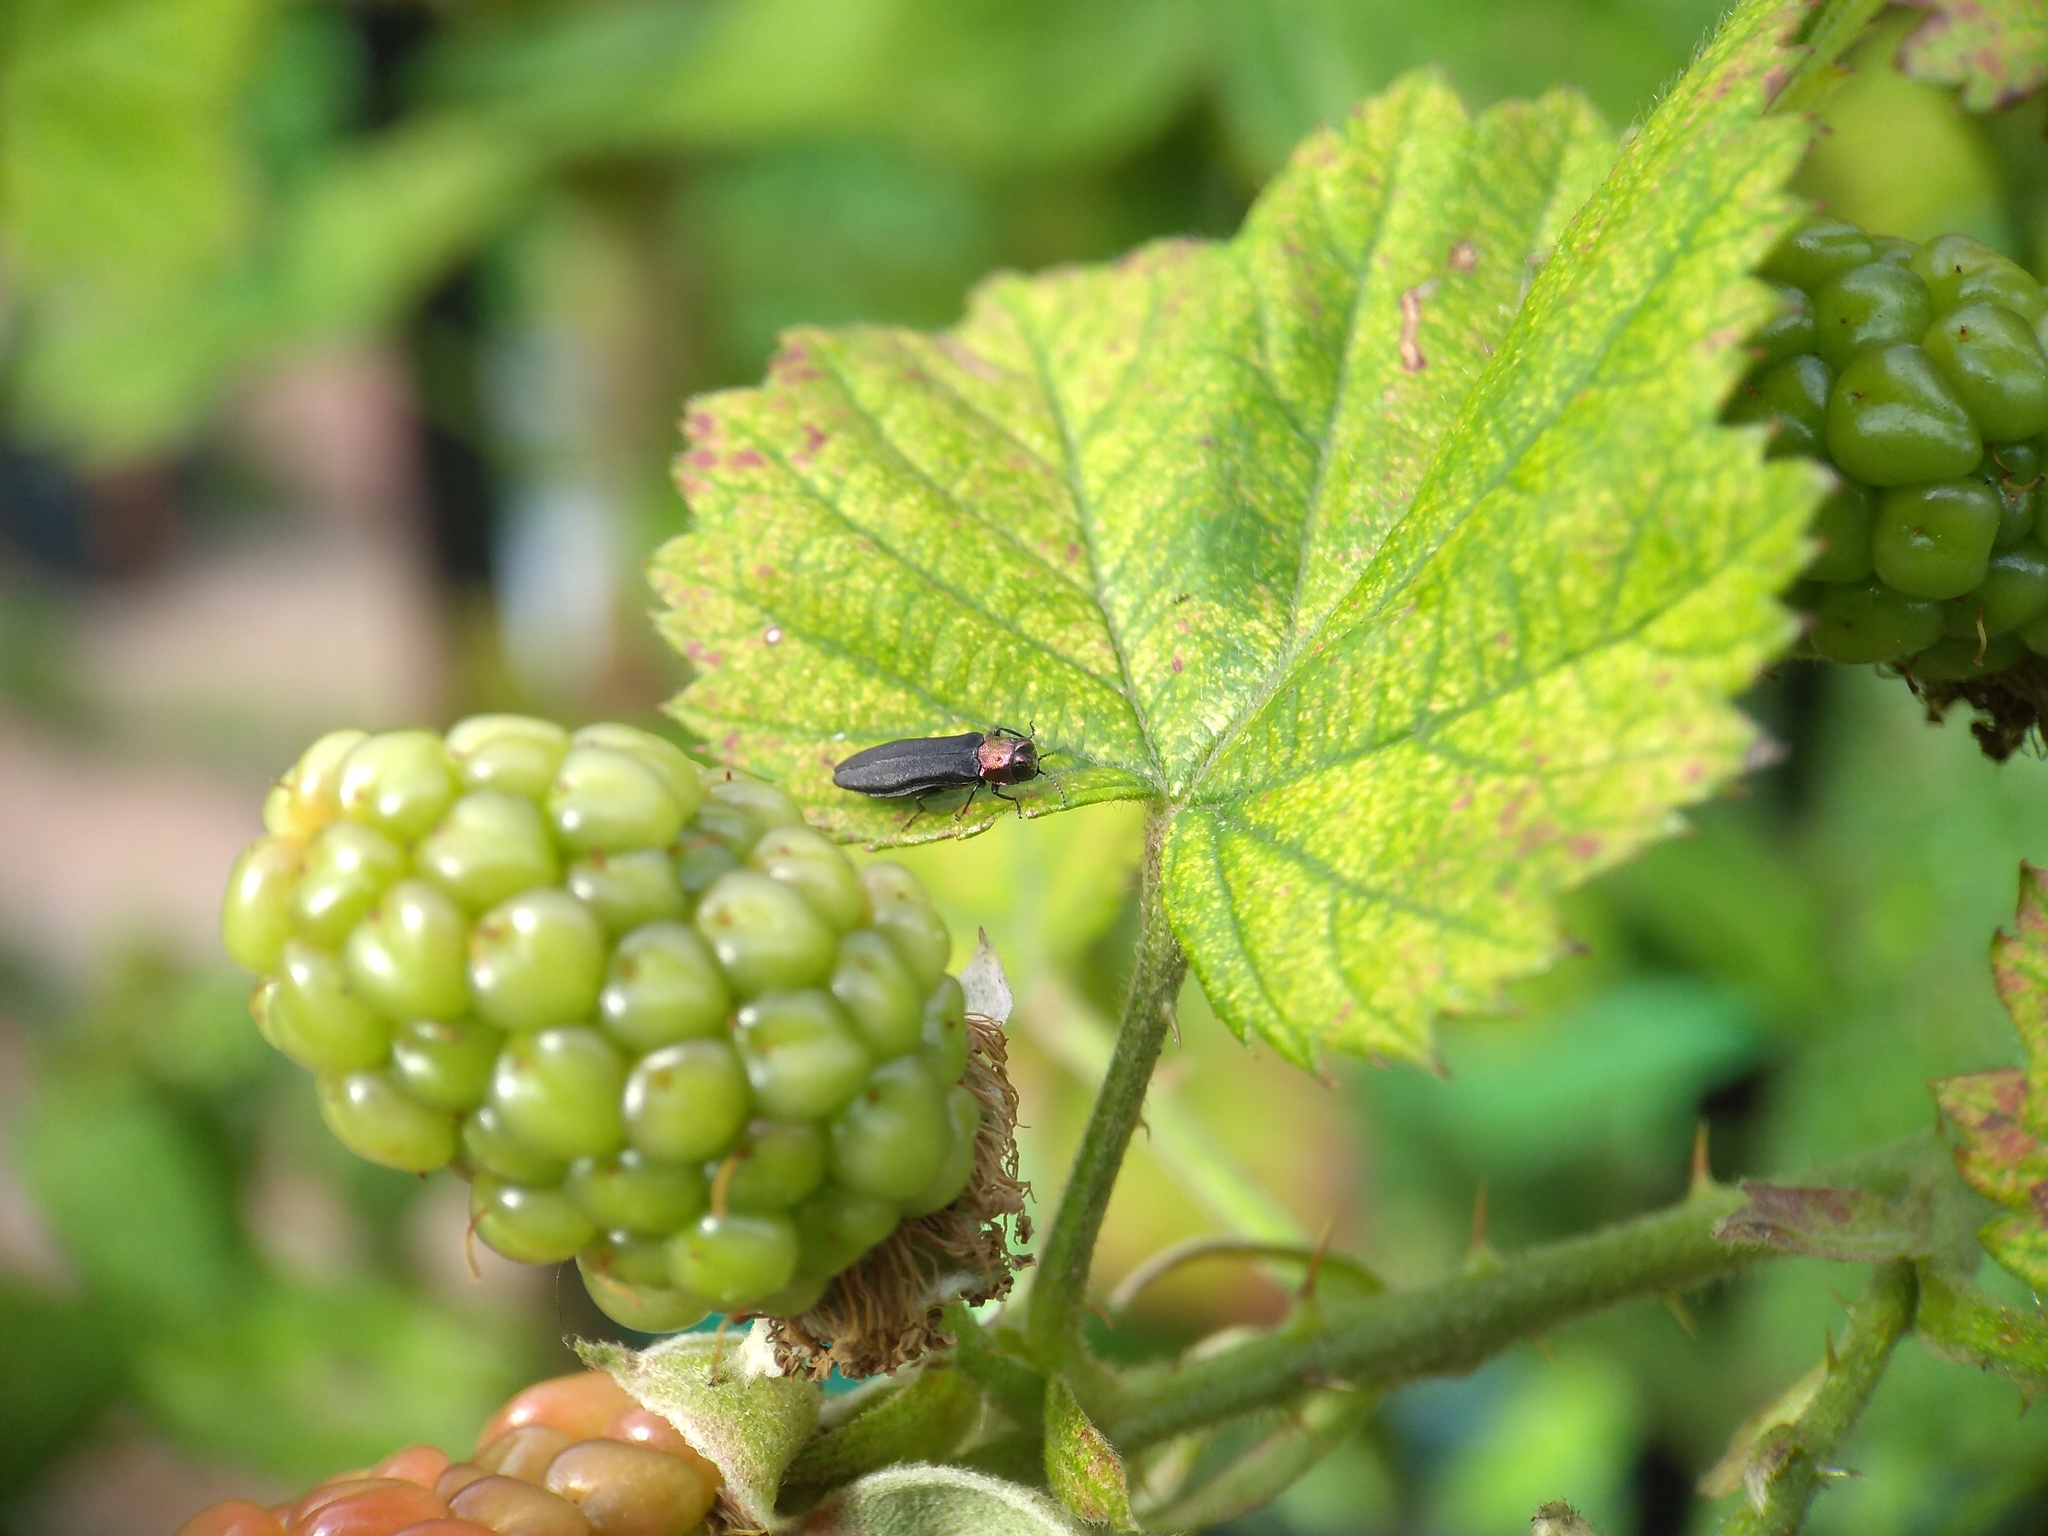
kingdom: Animalia
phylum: Arthropoda
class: Insecta
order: Coleoptera
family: Buprestidae
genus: Agrilus
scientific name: Agrilus ruficollis
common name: Red-necked cane borer beetle
